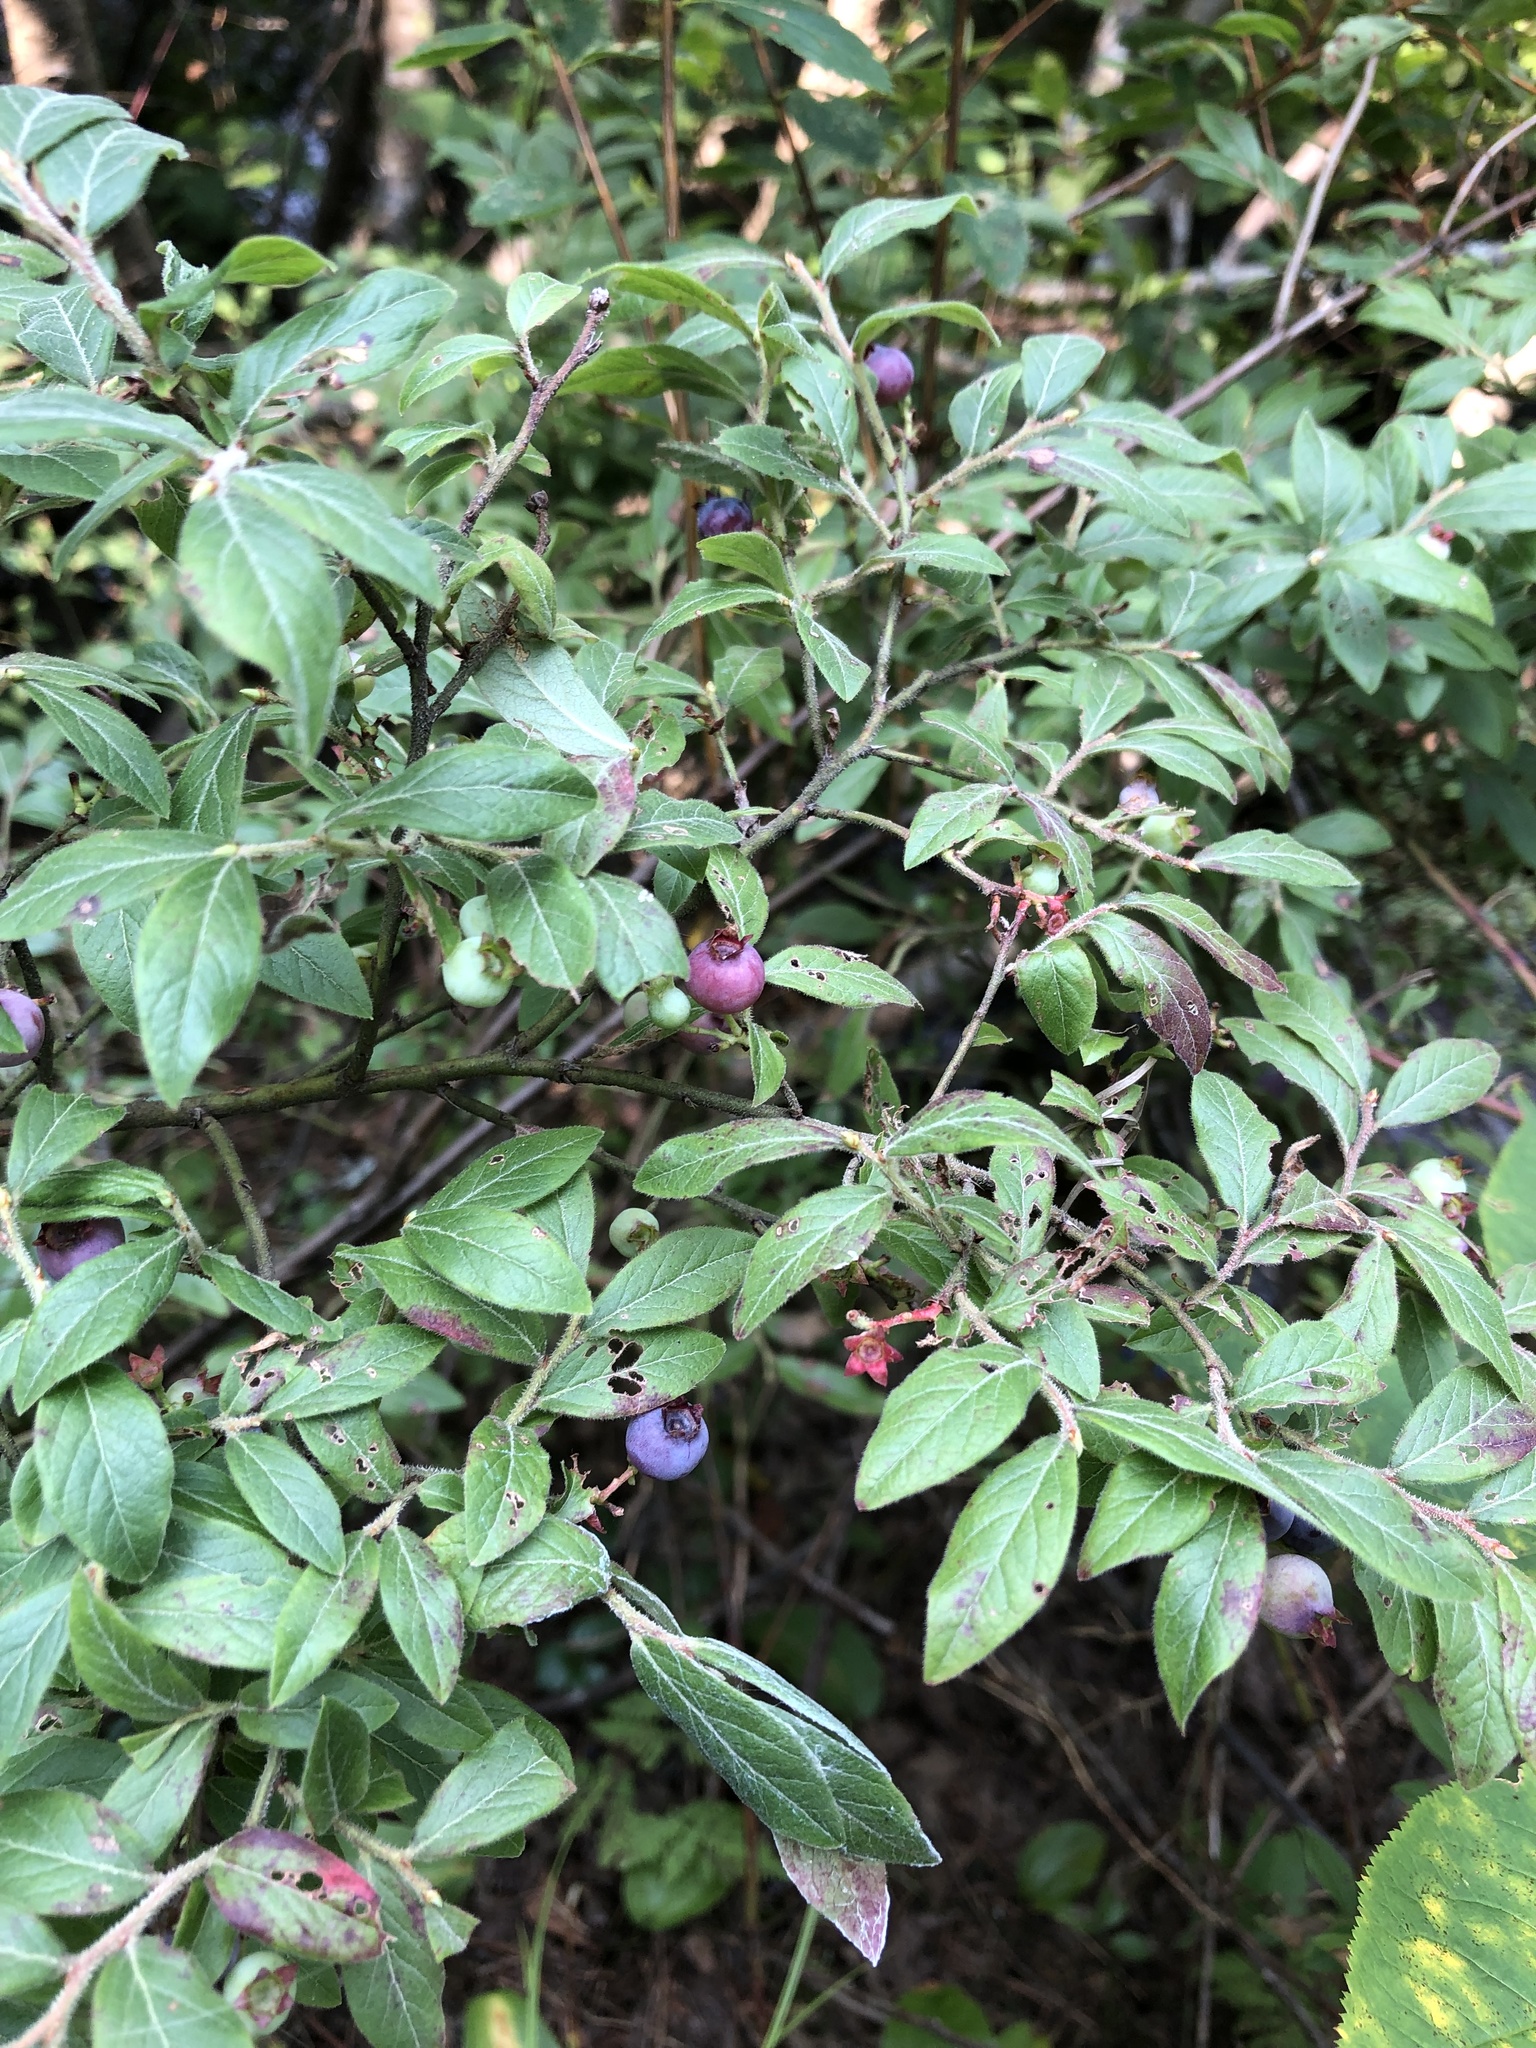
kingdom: Plantae
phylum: Tracheophyta
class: Magnoliopsida
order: Ericales
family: Ericaceae
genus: Vaccinium
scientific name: Vaccinium myrtilloides
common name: Canada blueberry
